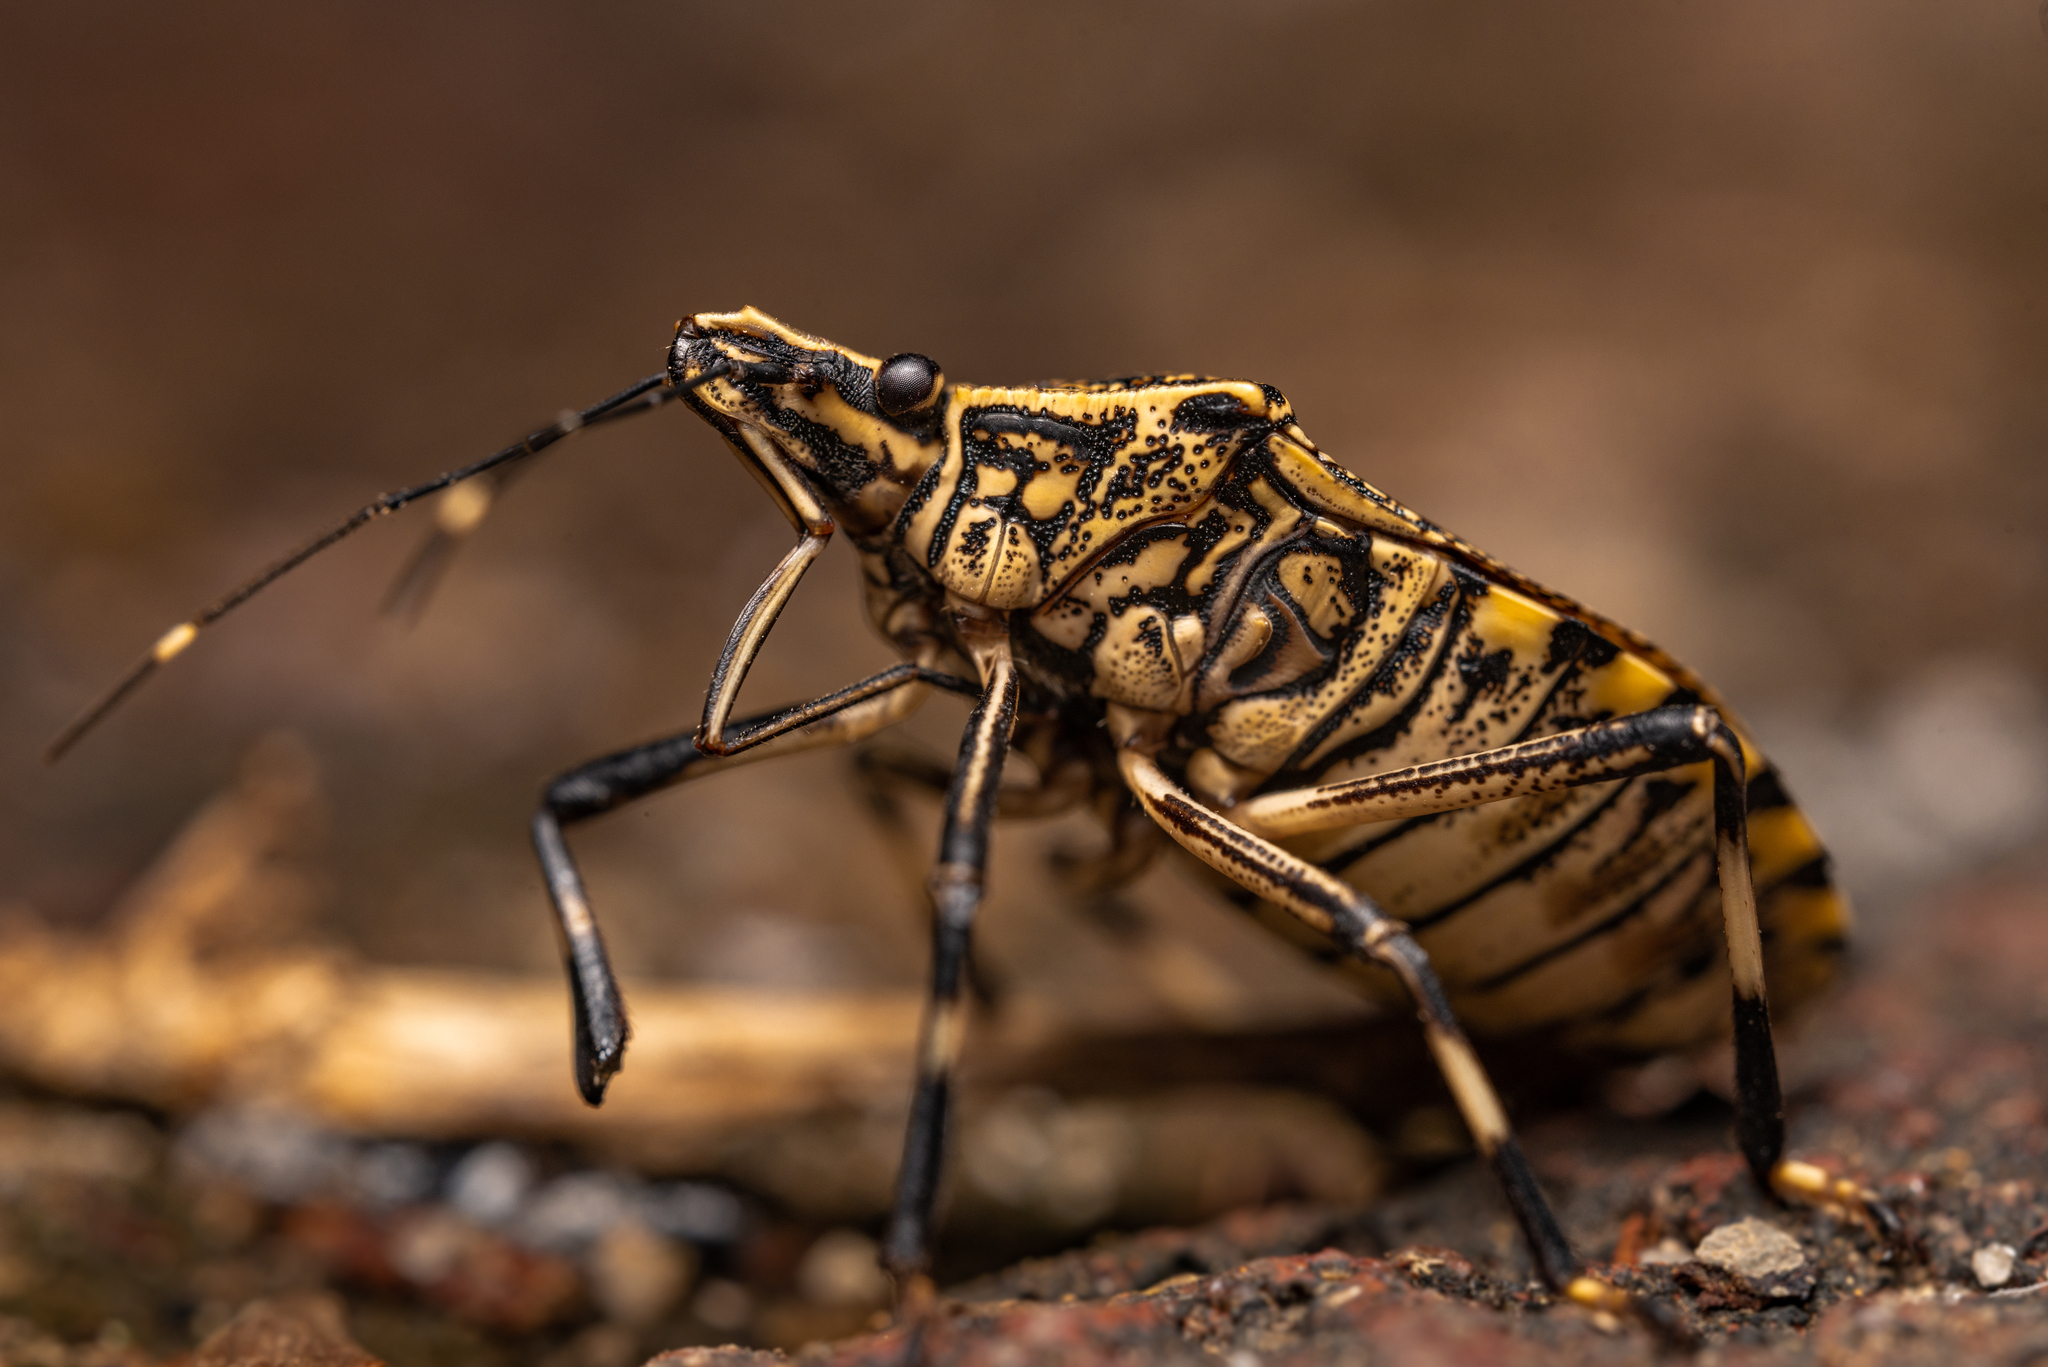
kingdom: Animalia
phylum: Arthropoda
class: Insecta
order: Hemiptera
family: Pentatomidae
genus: Erthesina
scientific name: Erthesina fullo
